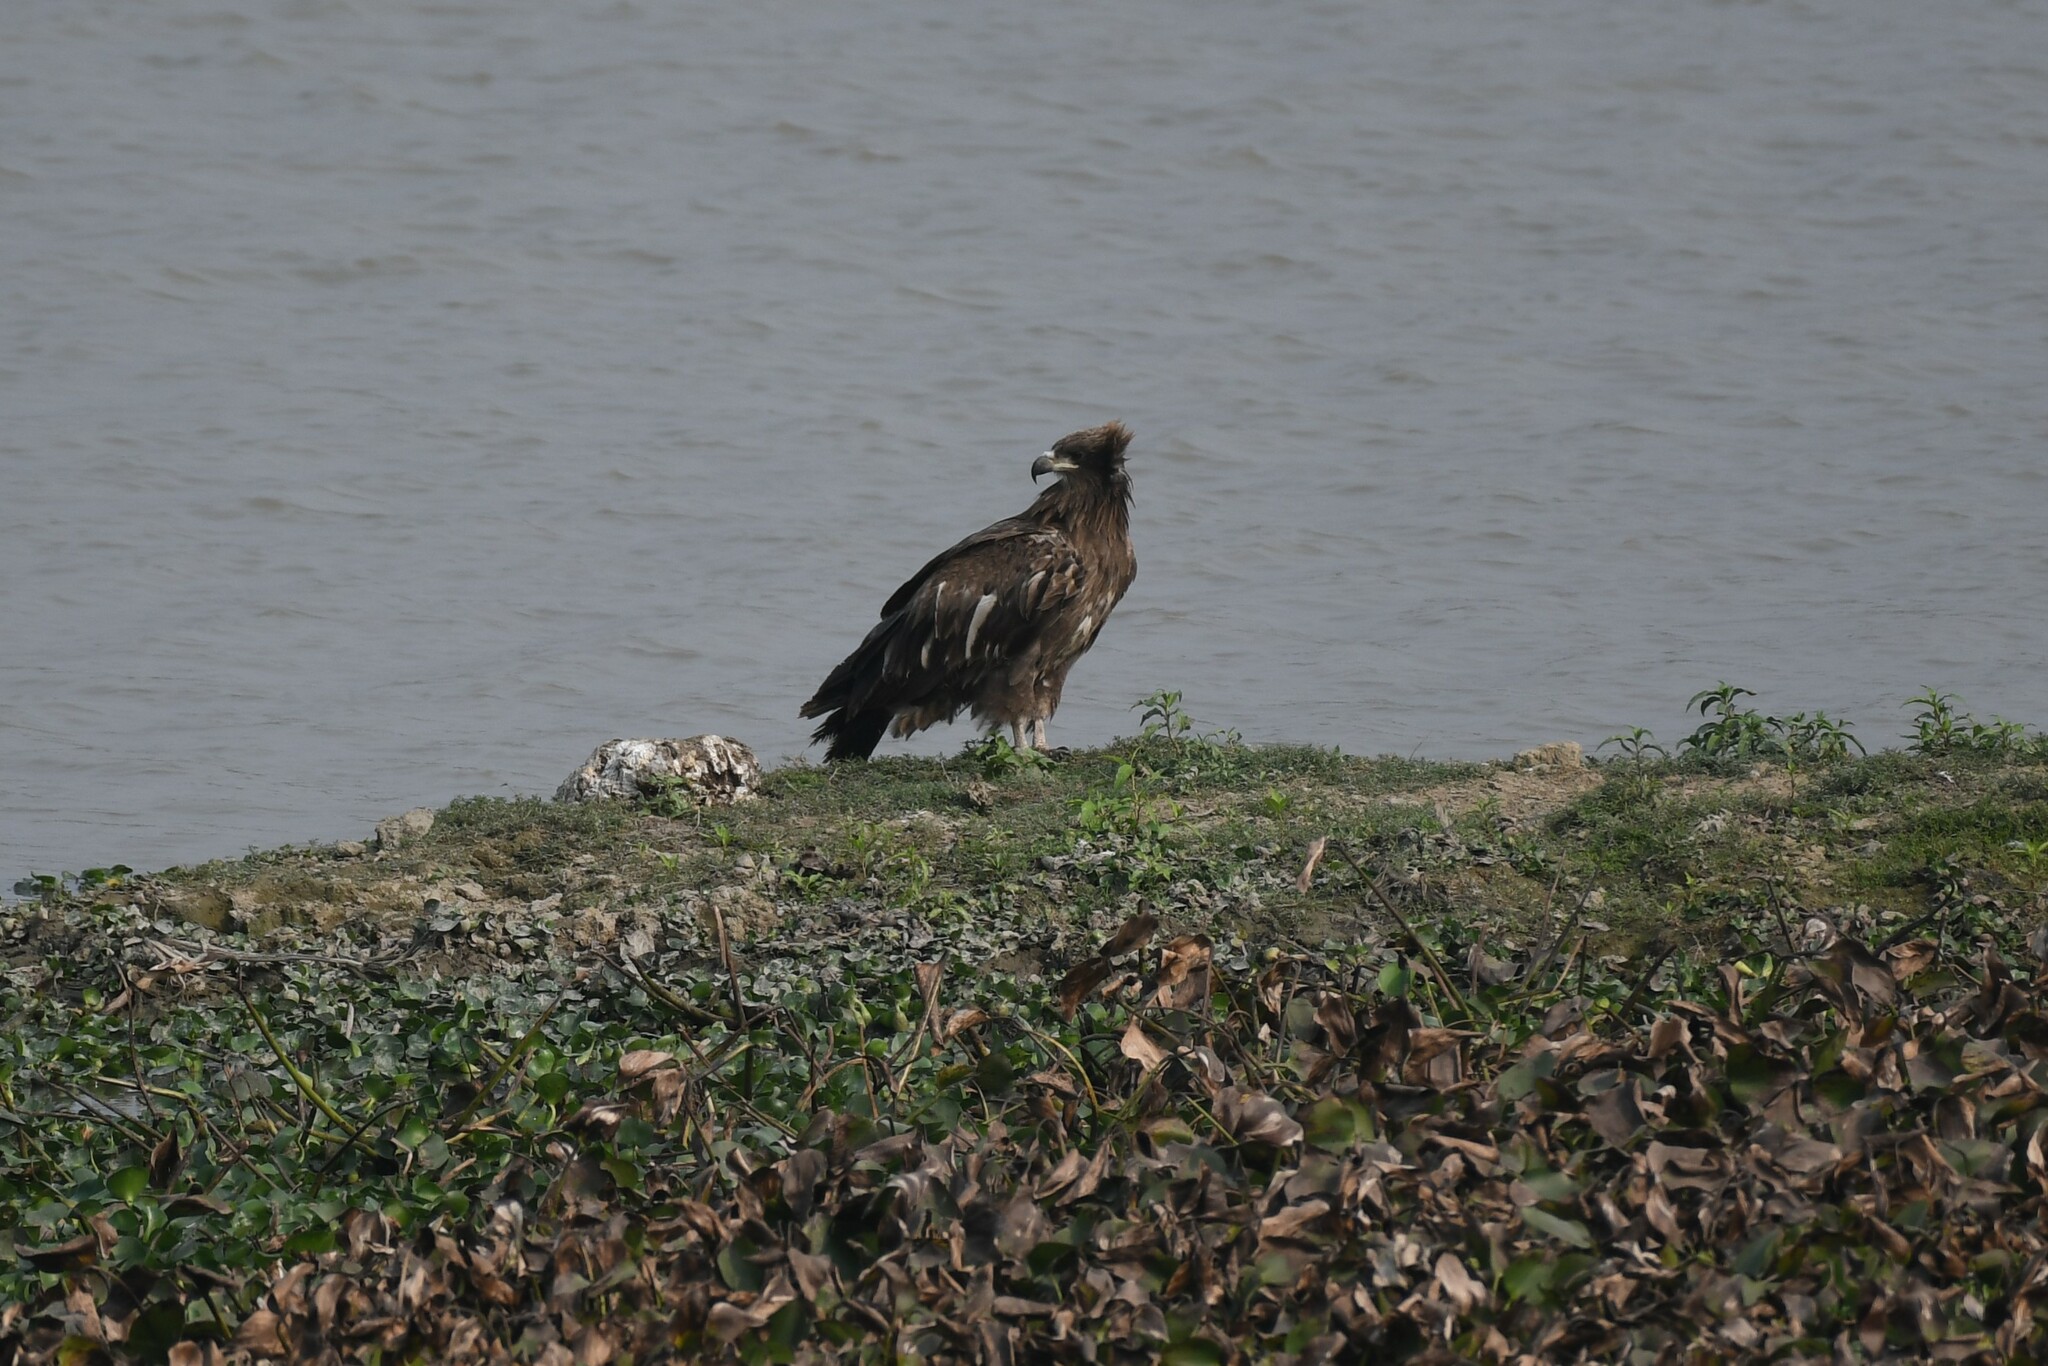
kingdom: Animalia
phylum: Chordata
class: Aves
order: Accipitriformes
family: Accipitridae
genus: Haliaeetus
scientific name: Haliaeetus leucoryphus
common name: Pallas's fish eagle
